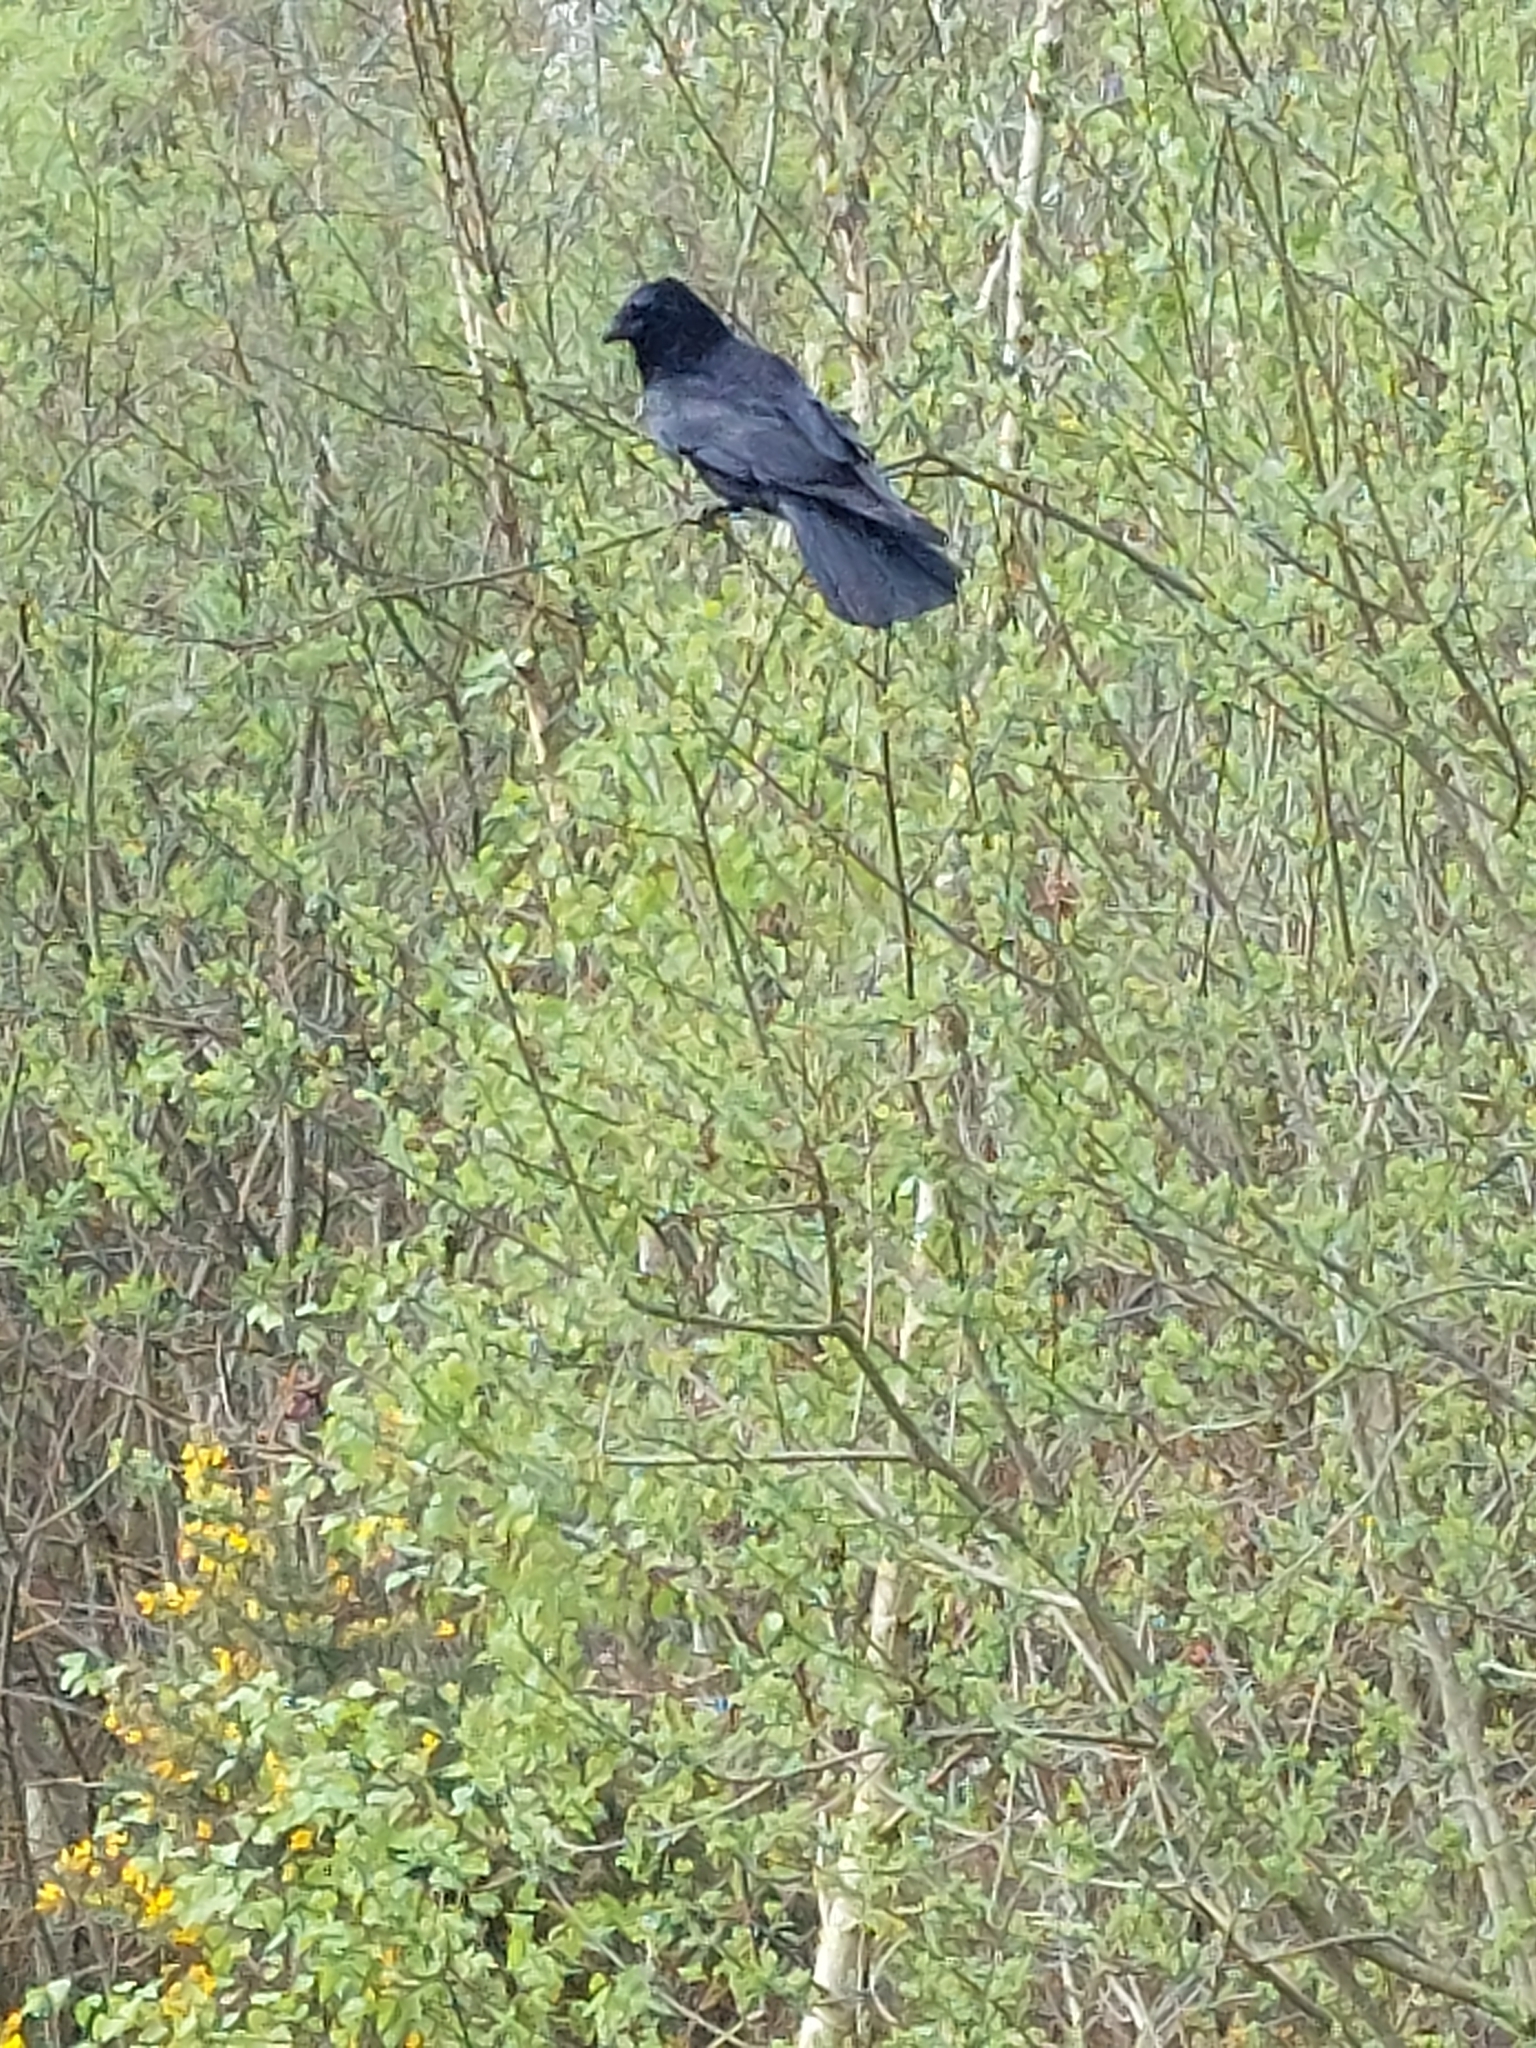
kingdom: Animalia
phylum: Chordata
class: Aves
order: Passeriformes
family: Corvidae
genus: Corvus
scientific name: Corvus corone
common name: Carrion crow
